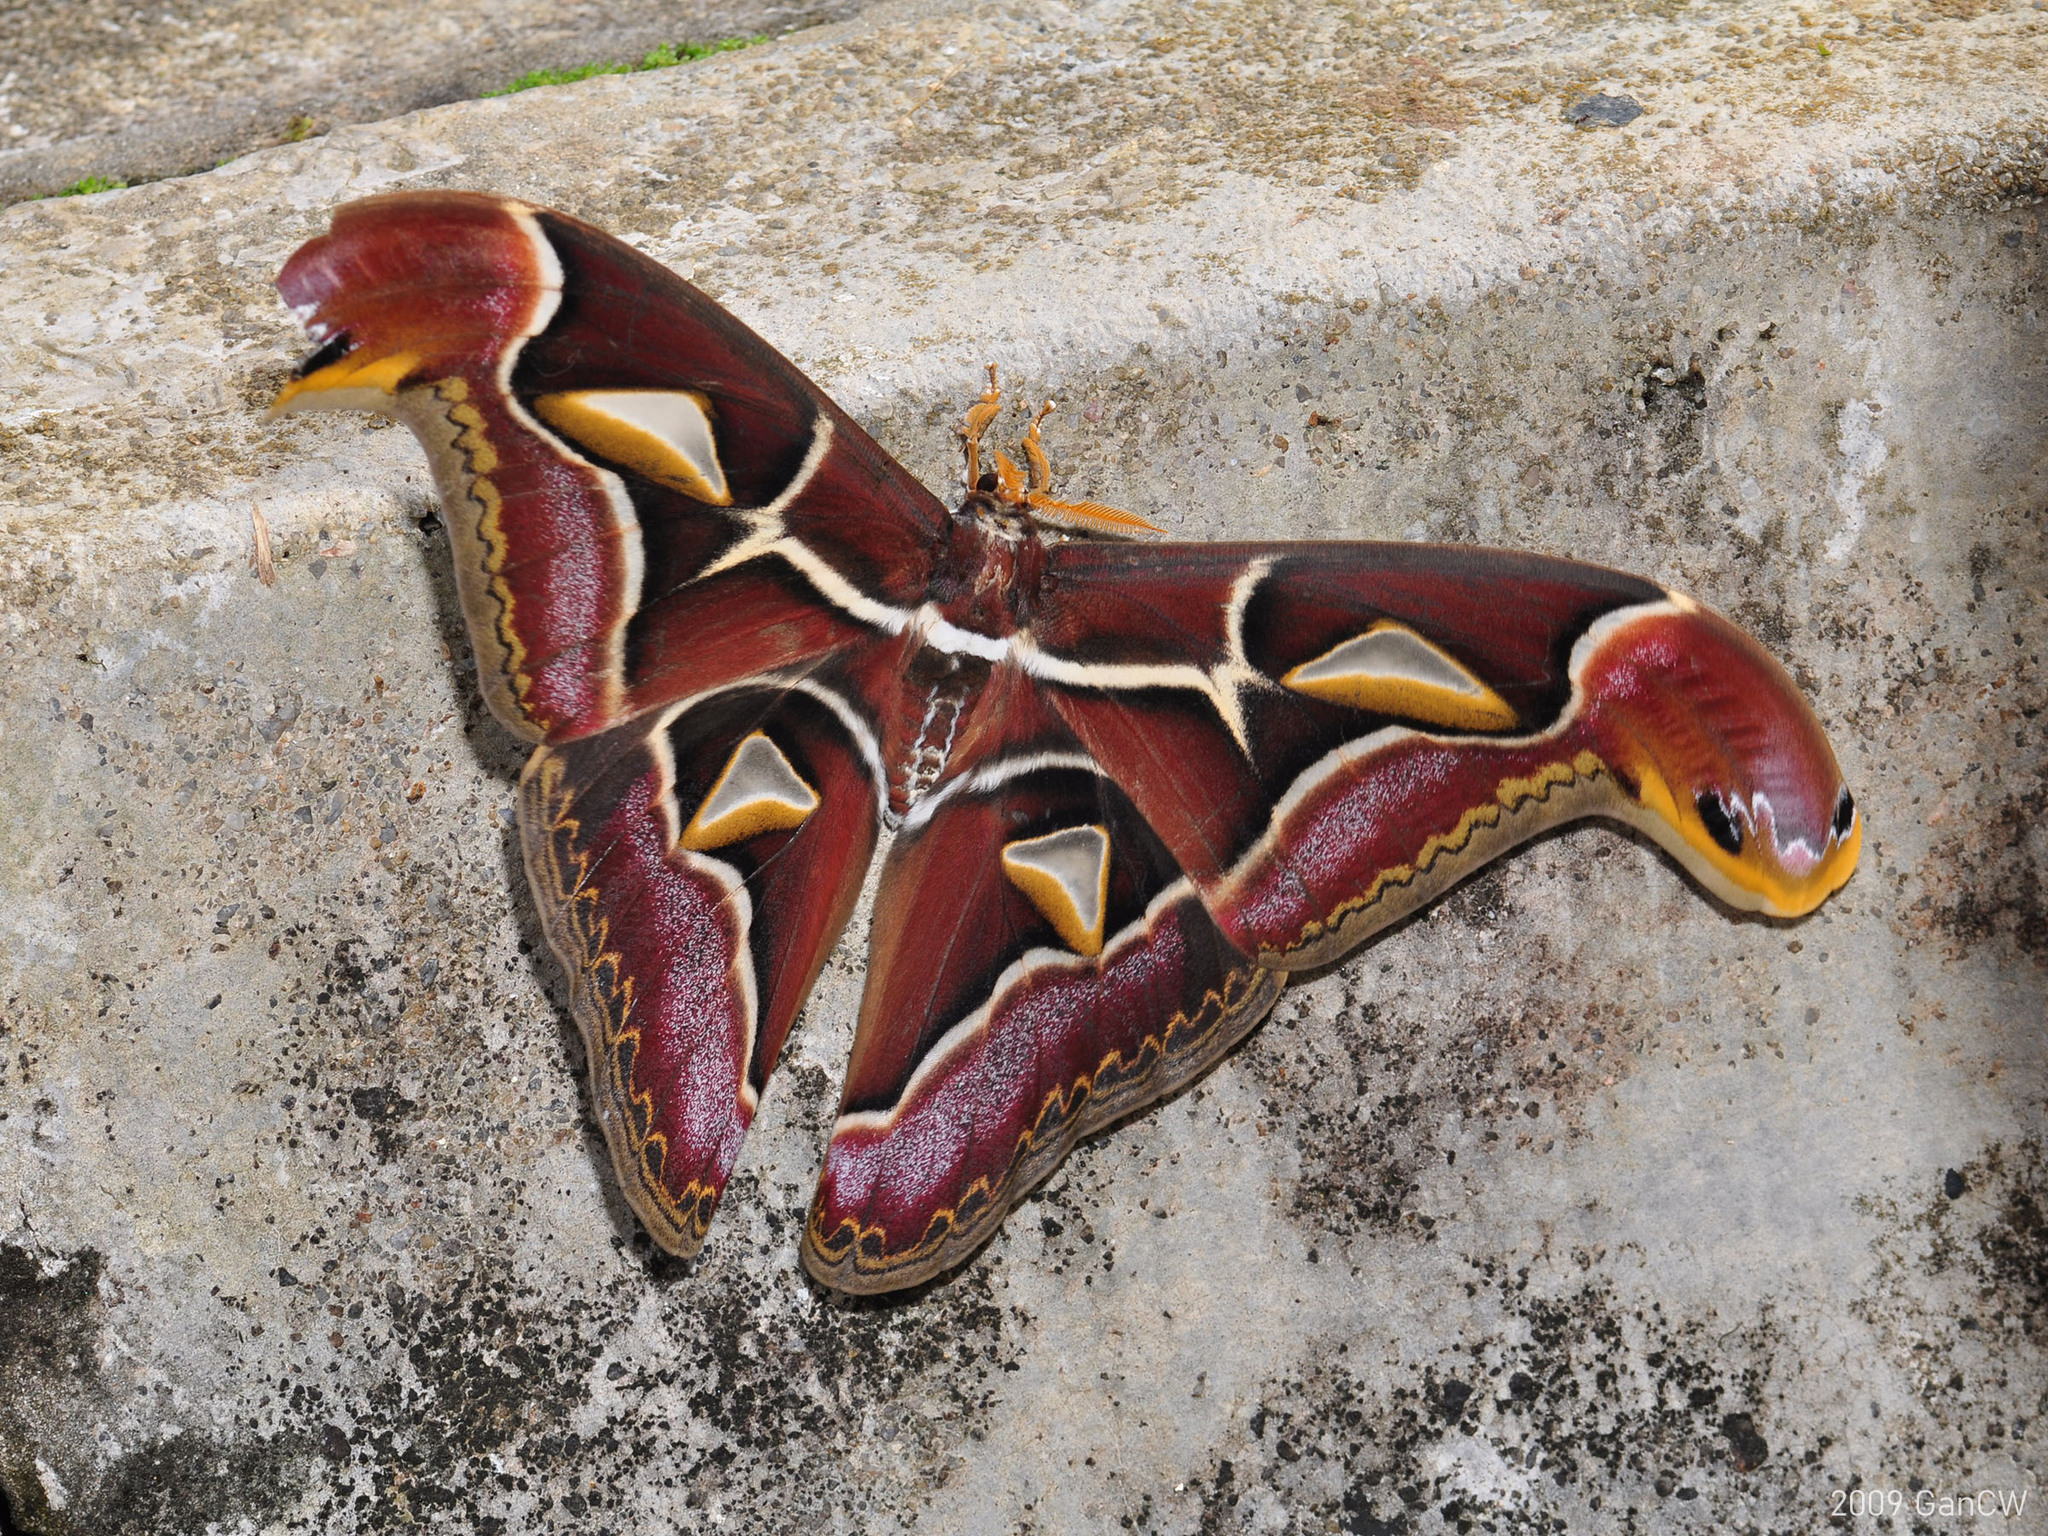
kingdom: Animalia
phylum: Arthropoda
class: Insecta
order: Lepidoptera
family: Saturniidae
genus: Archaeoattacus
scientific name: Archaeoattacus edwardsii
